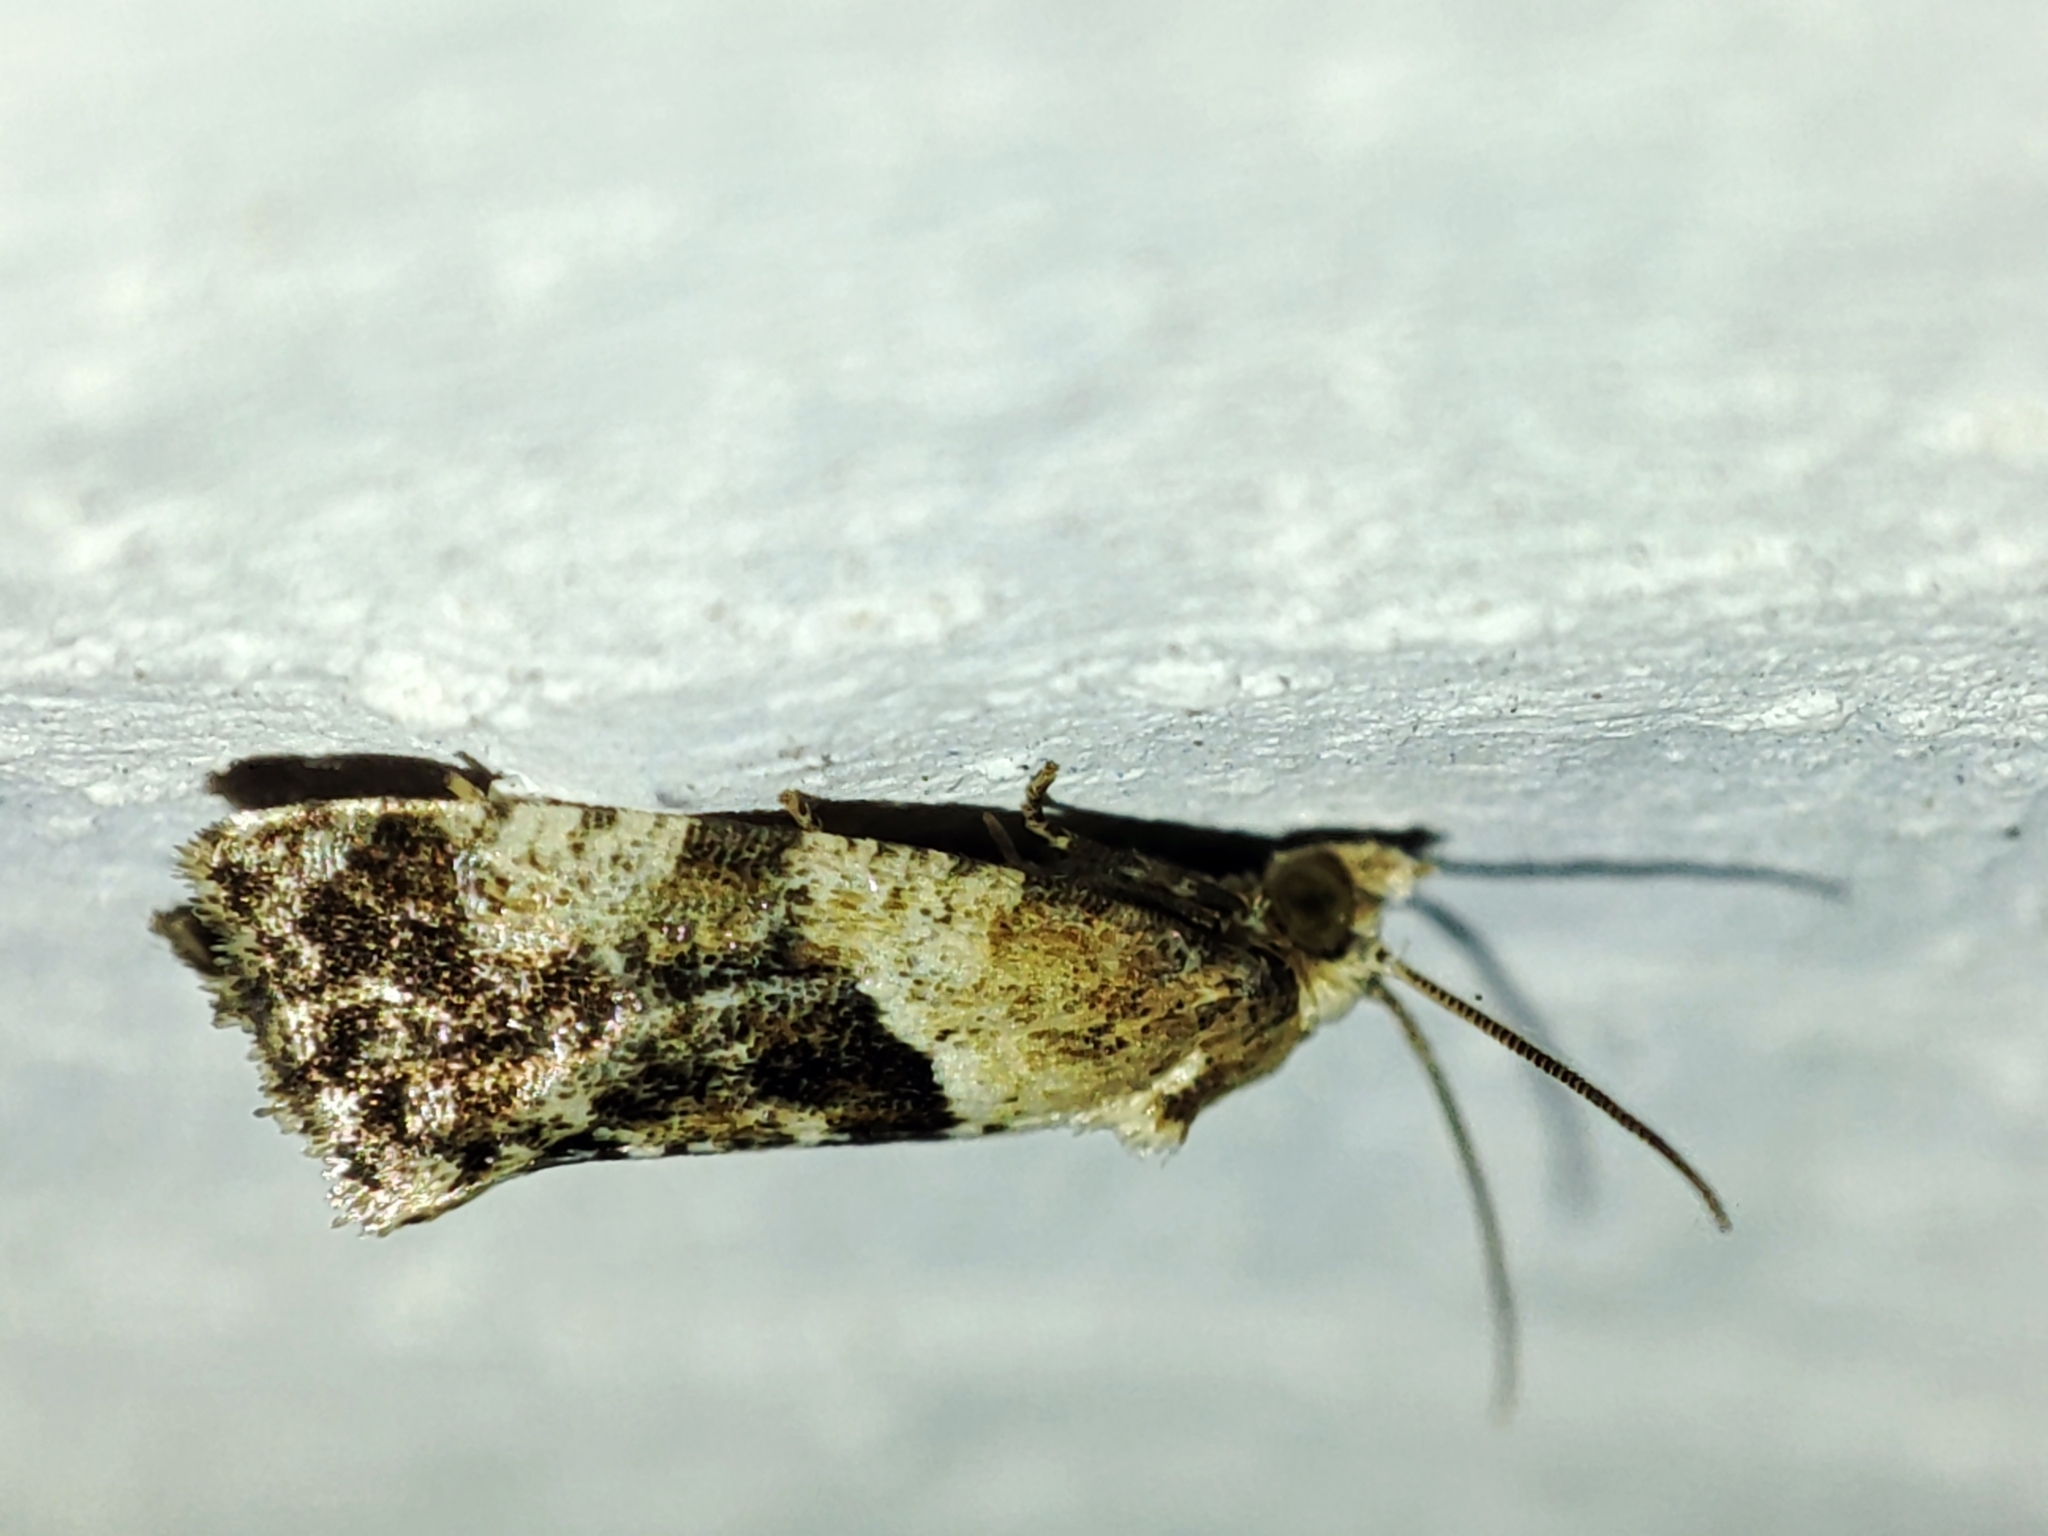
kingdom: Animalia
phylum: Arthropoda
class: Insecta
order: Lepidoptera
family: Tortricidae
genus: Phalonidia
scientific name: Phalonidia manniana
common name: Water-mint conch
